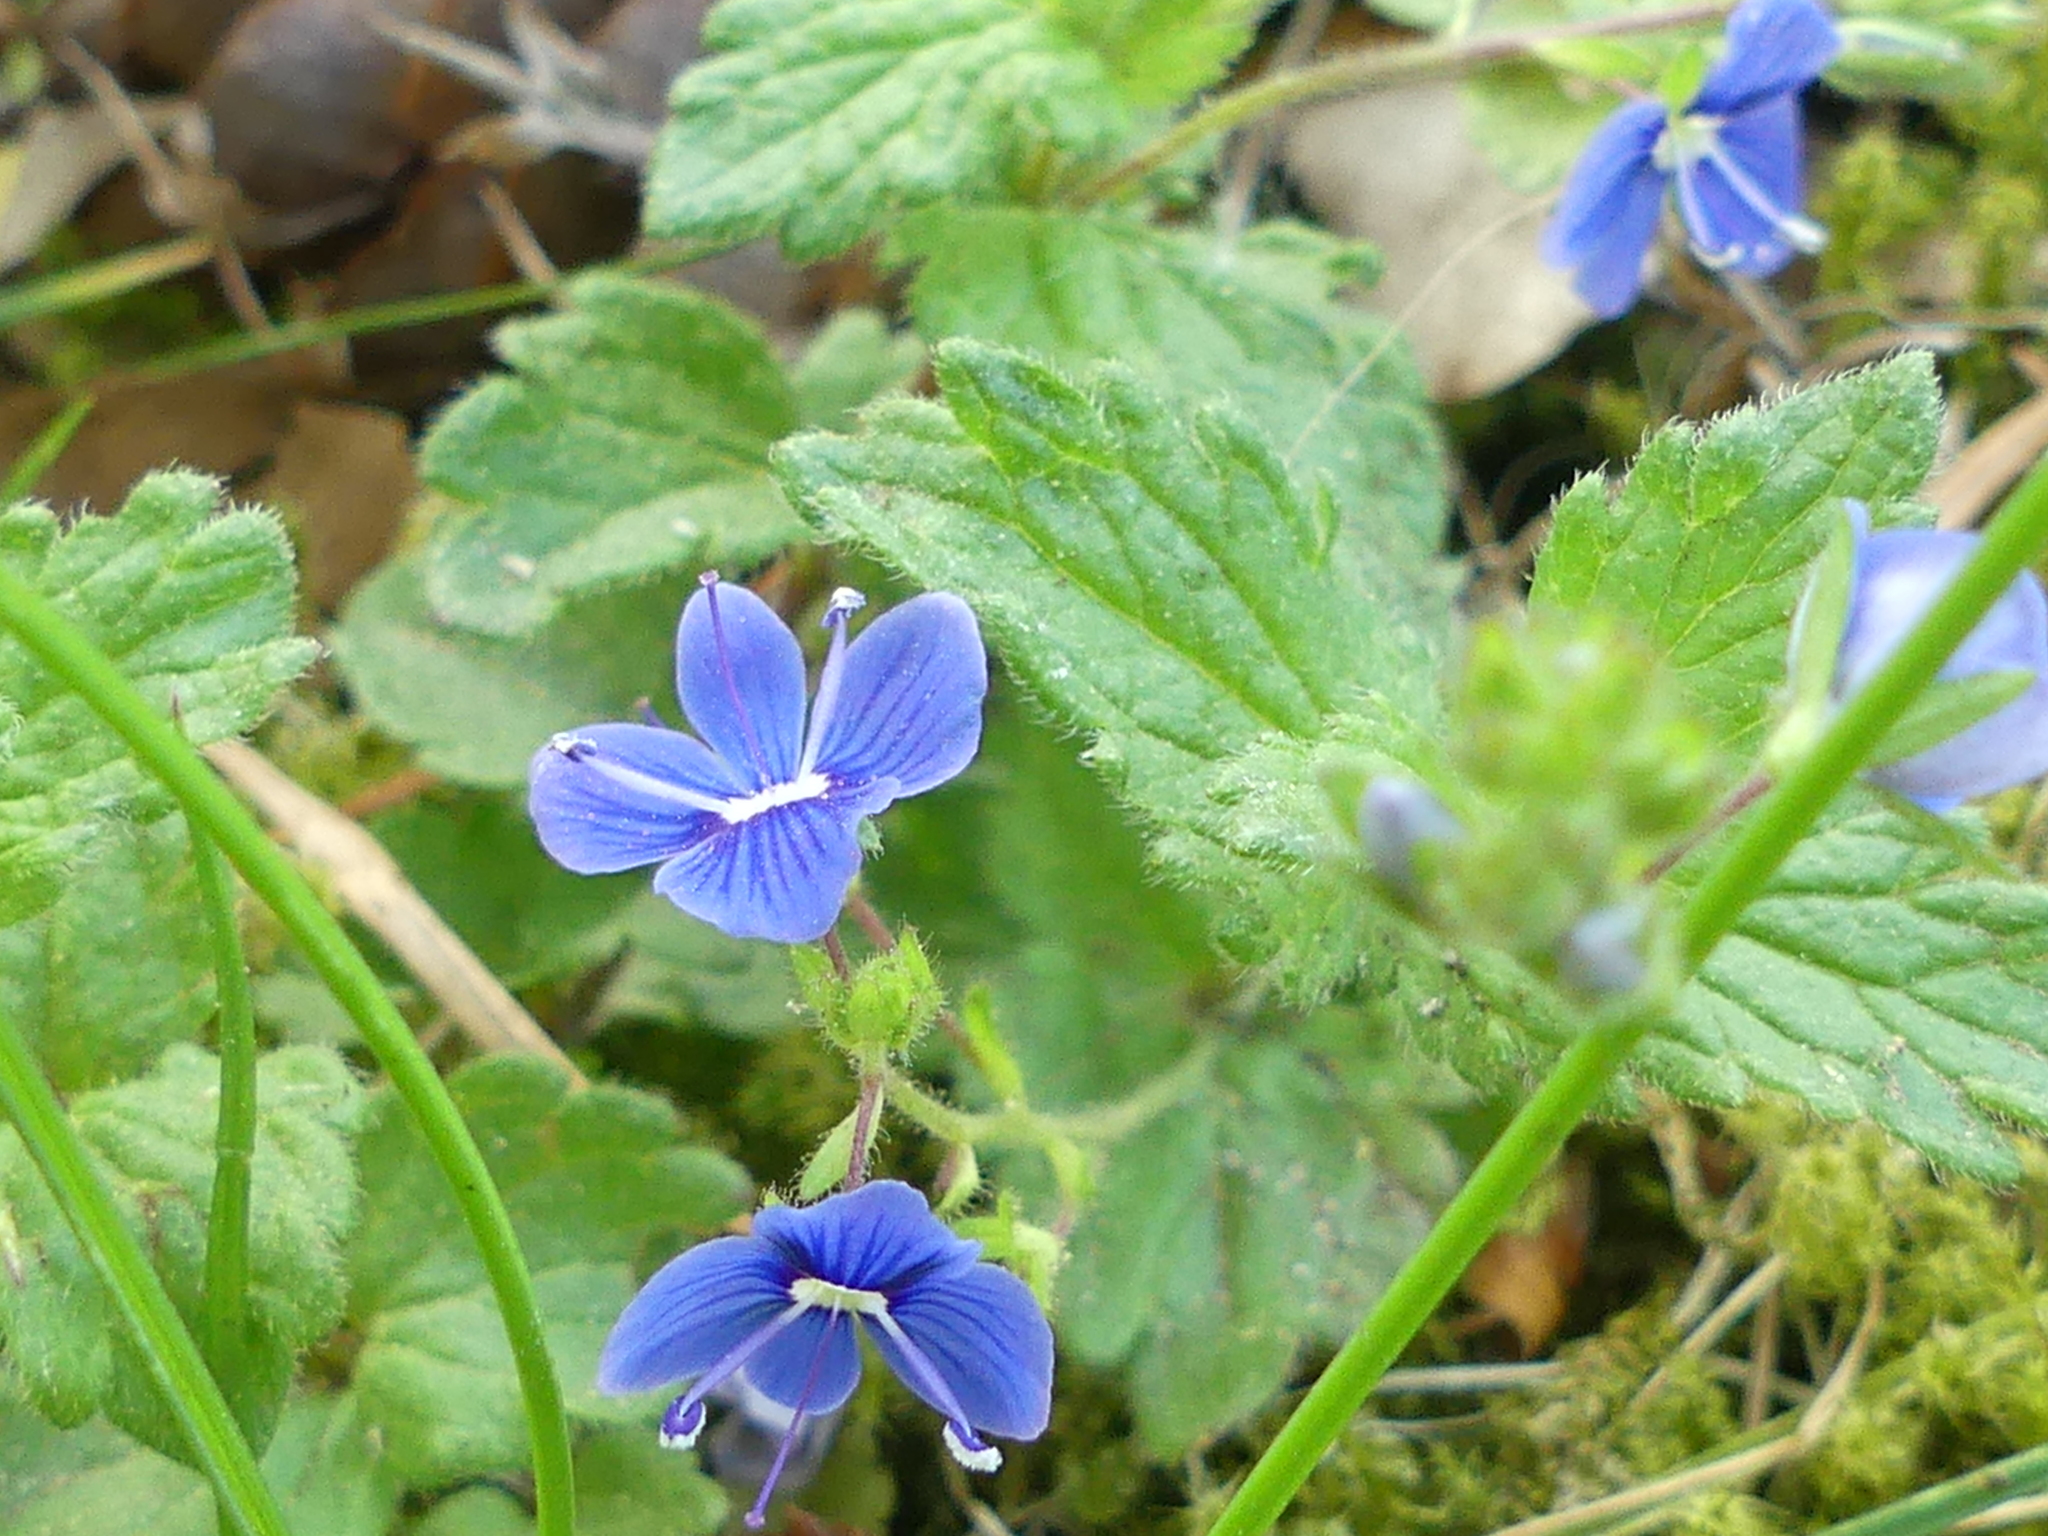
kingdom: Plantae
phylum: Tracheophyta
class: Magnoliopsida
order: Lamiales
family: Plantaginaceae
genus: Veronica
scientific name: Veronica chamaedrys
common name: Germander speedwell
